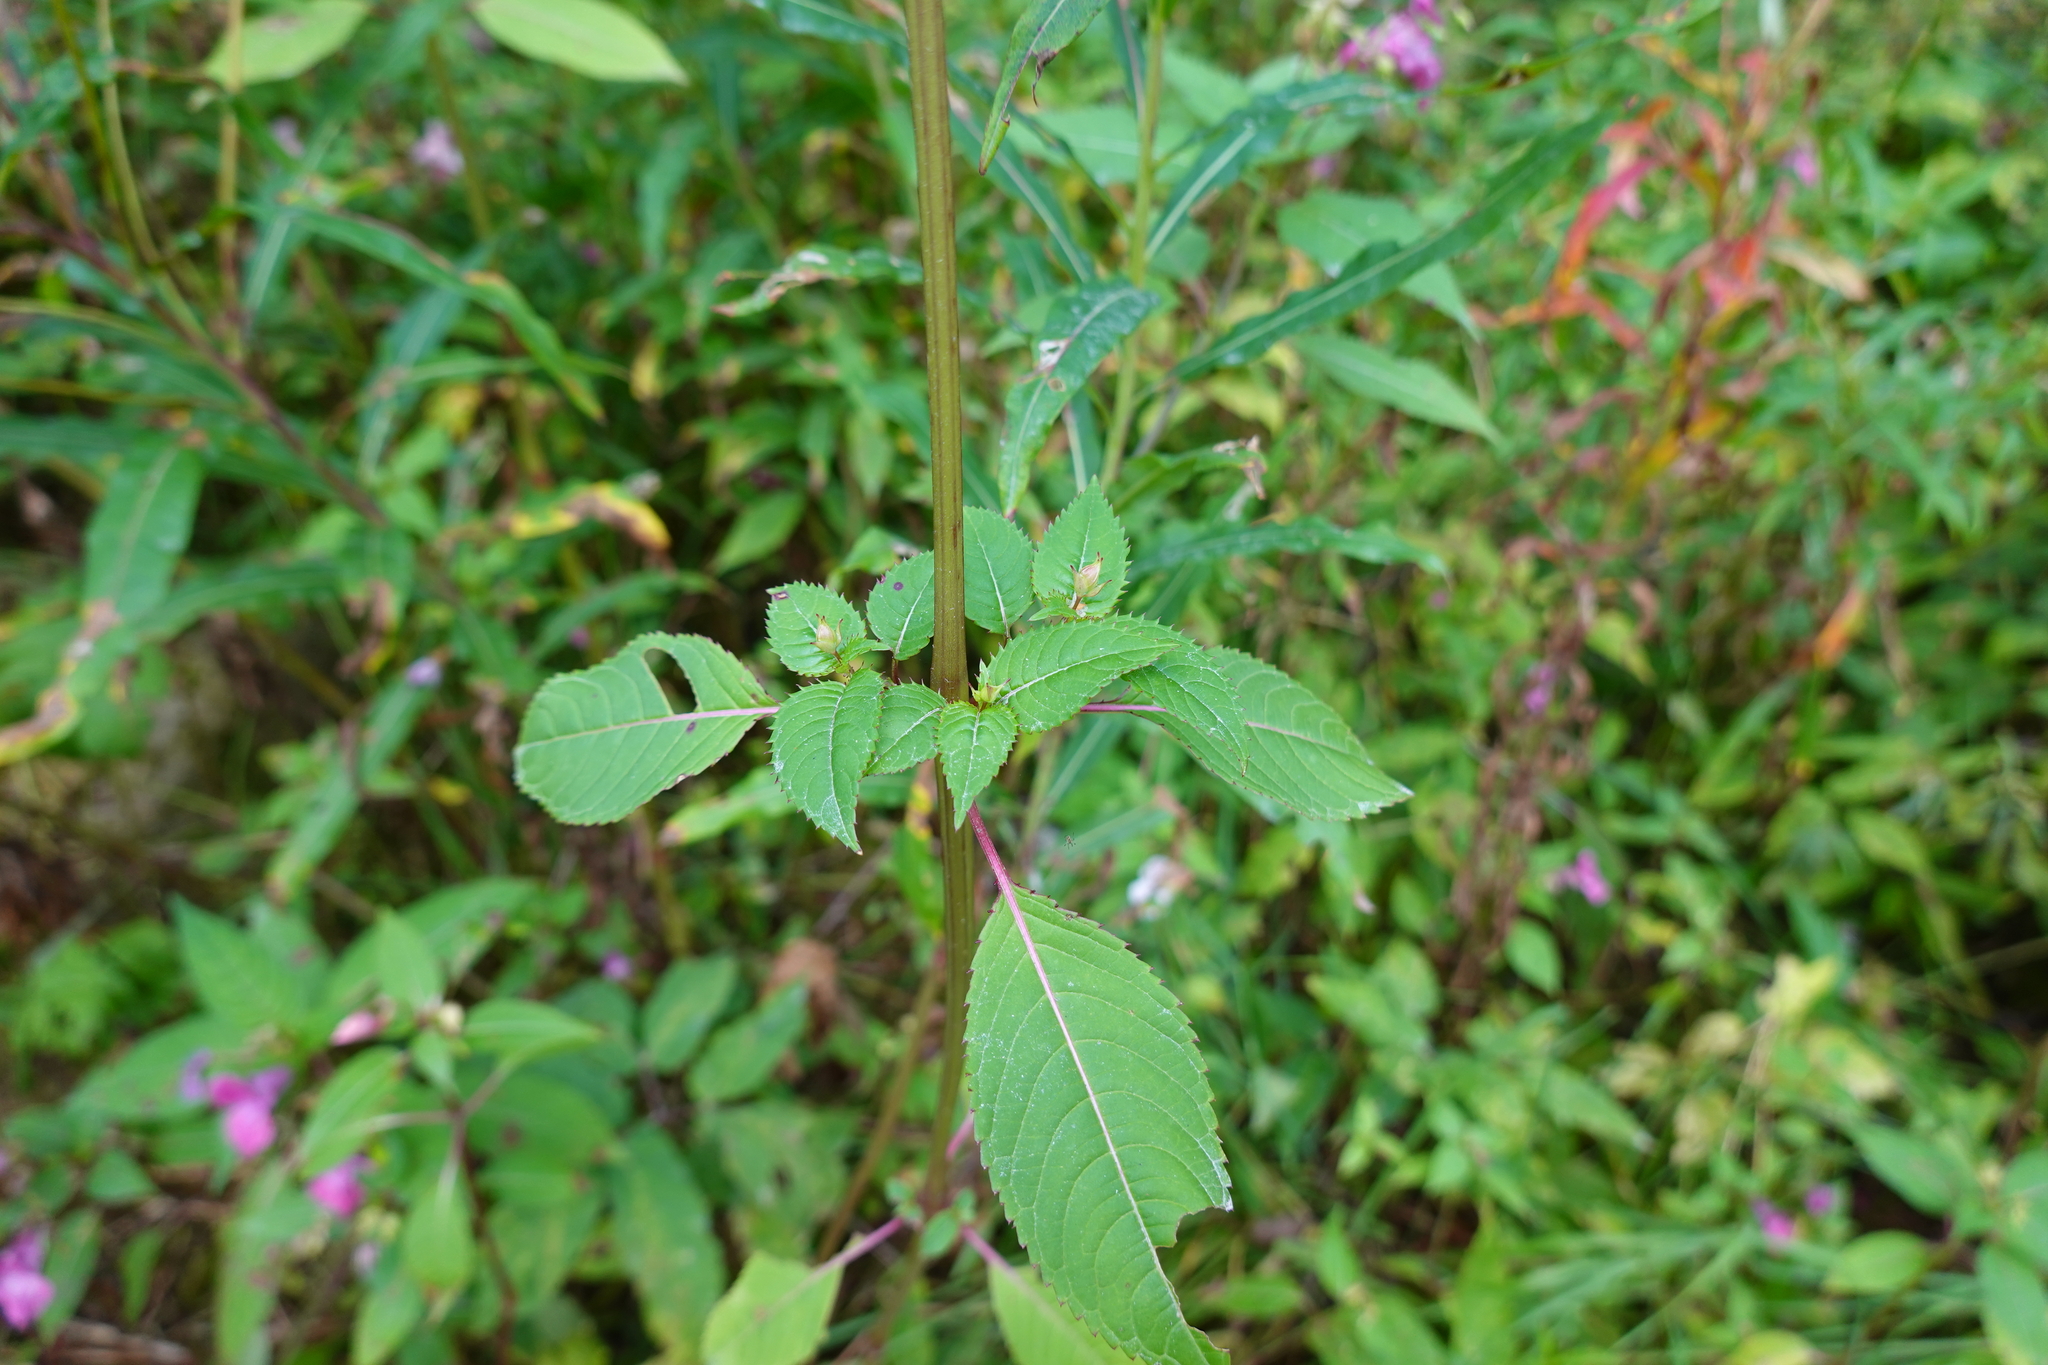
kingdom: Plantae
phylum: Tracheophyta
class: Magnoliopsida
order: Ericales
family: Balsaminaceae
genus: Impatiens
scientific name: Impatiens glandulifera
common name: Himalayan balsam
